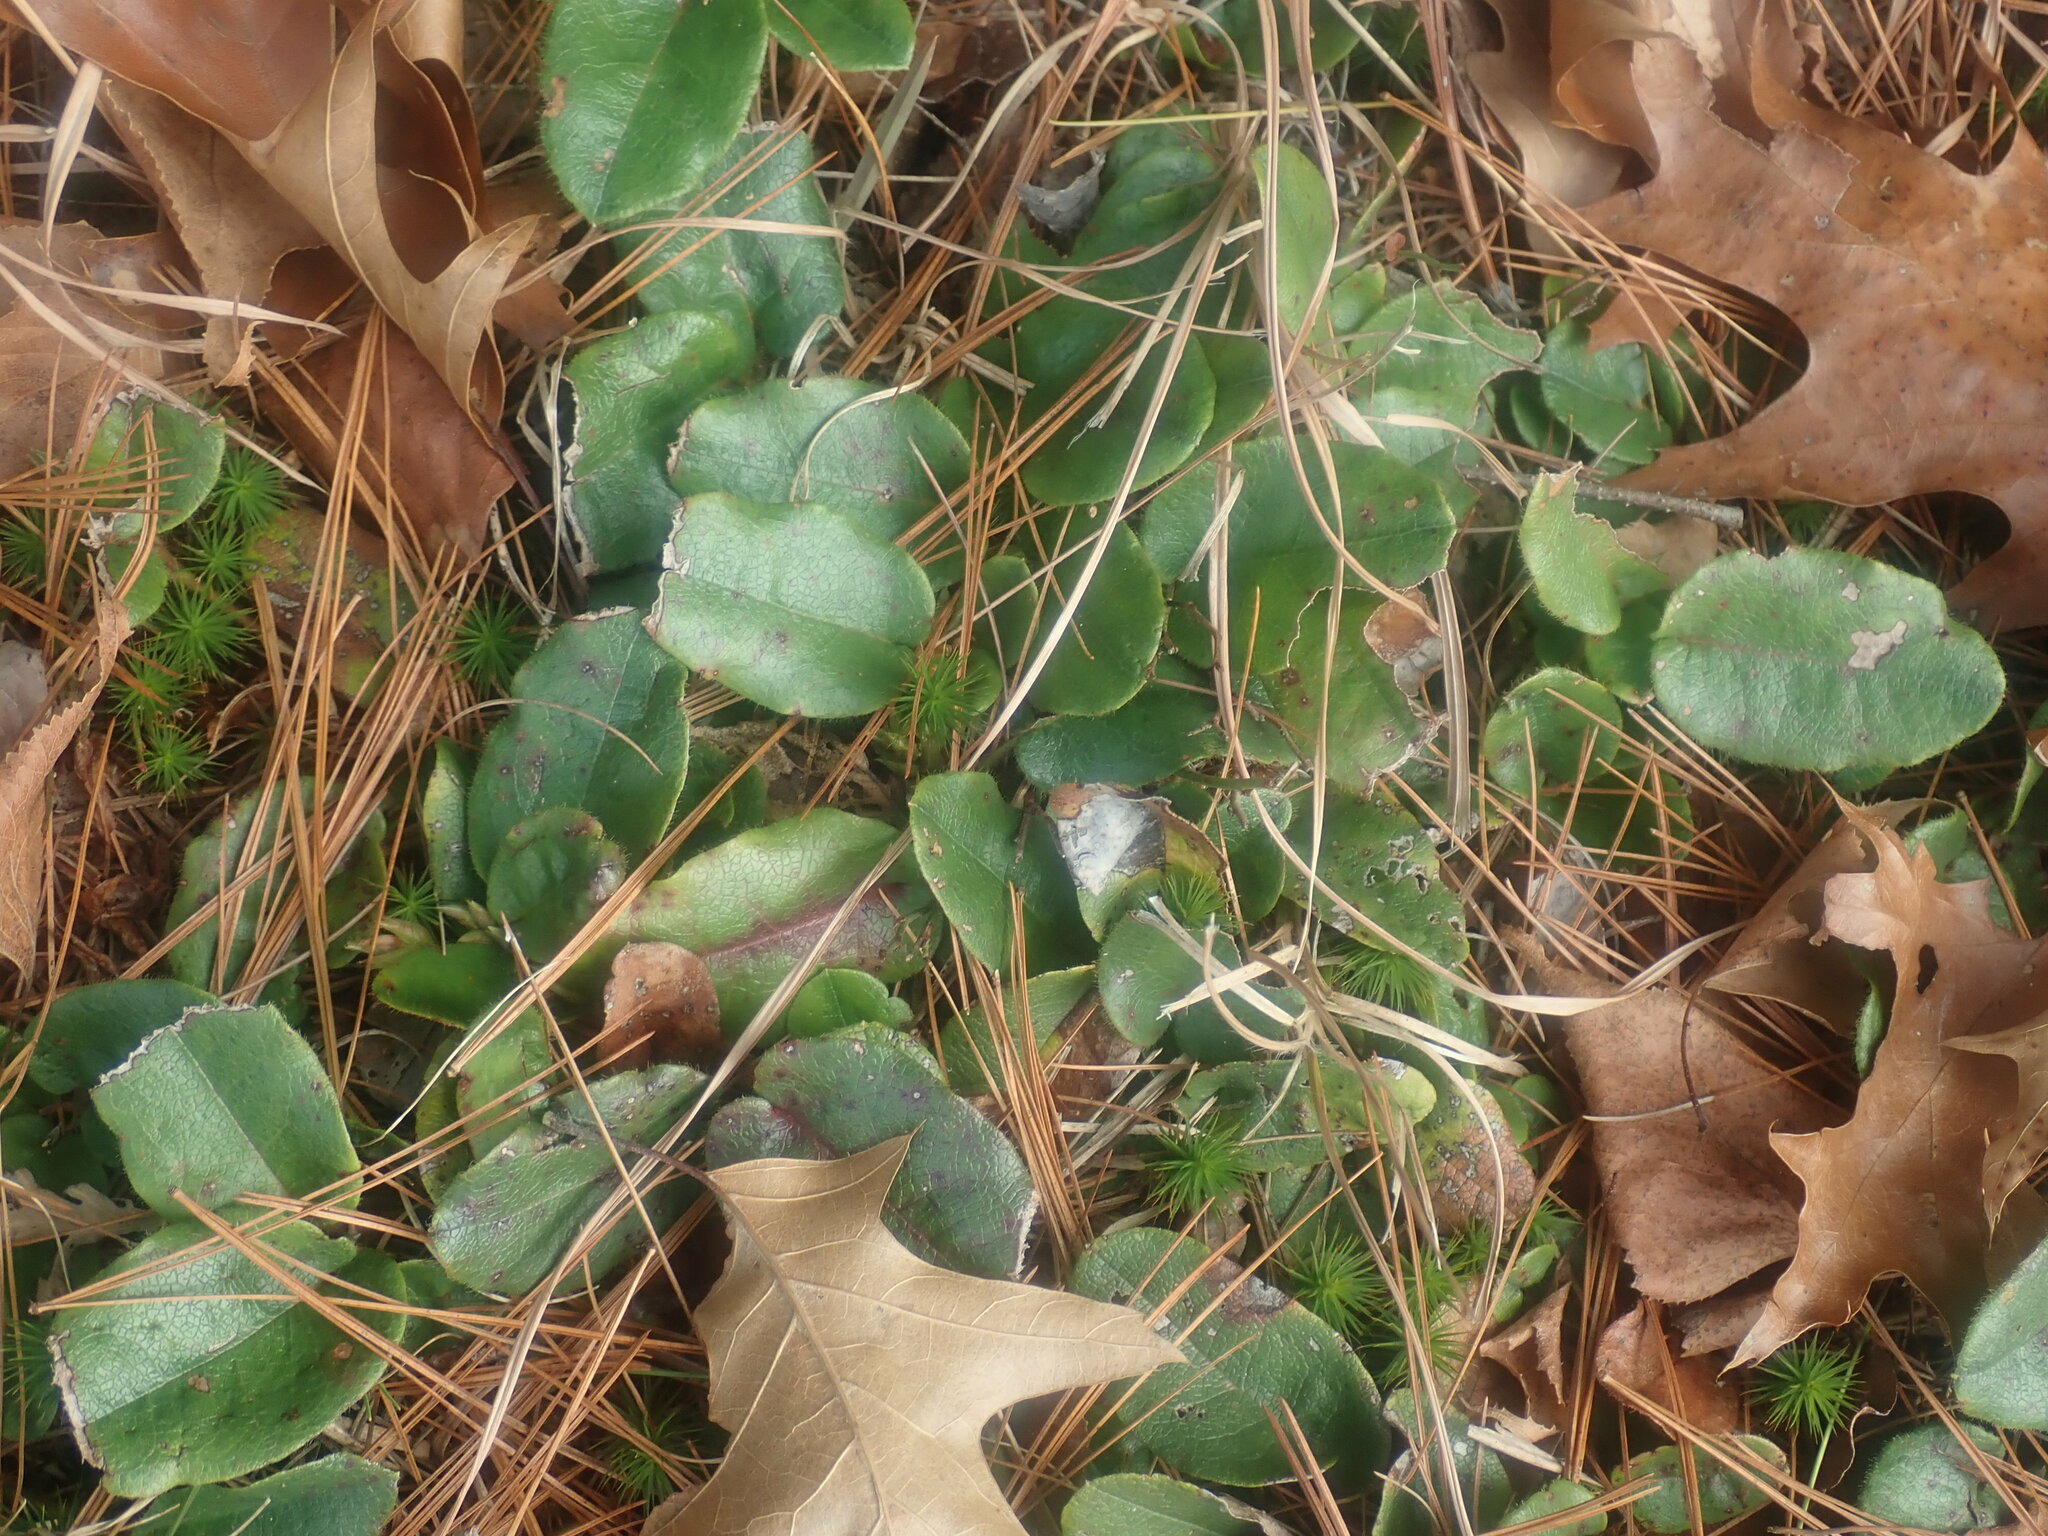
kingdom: Plantae
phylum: Tracheophyta
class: Magnoliopsida
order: Ericales
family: Ericaceae
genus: Epigaea
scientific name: Epigaea repens
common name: Gravelroot
